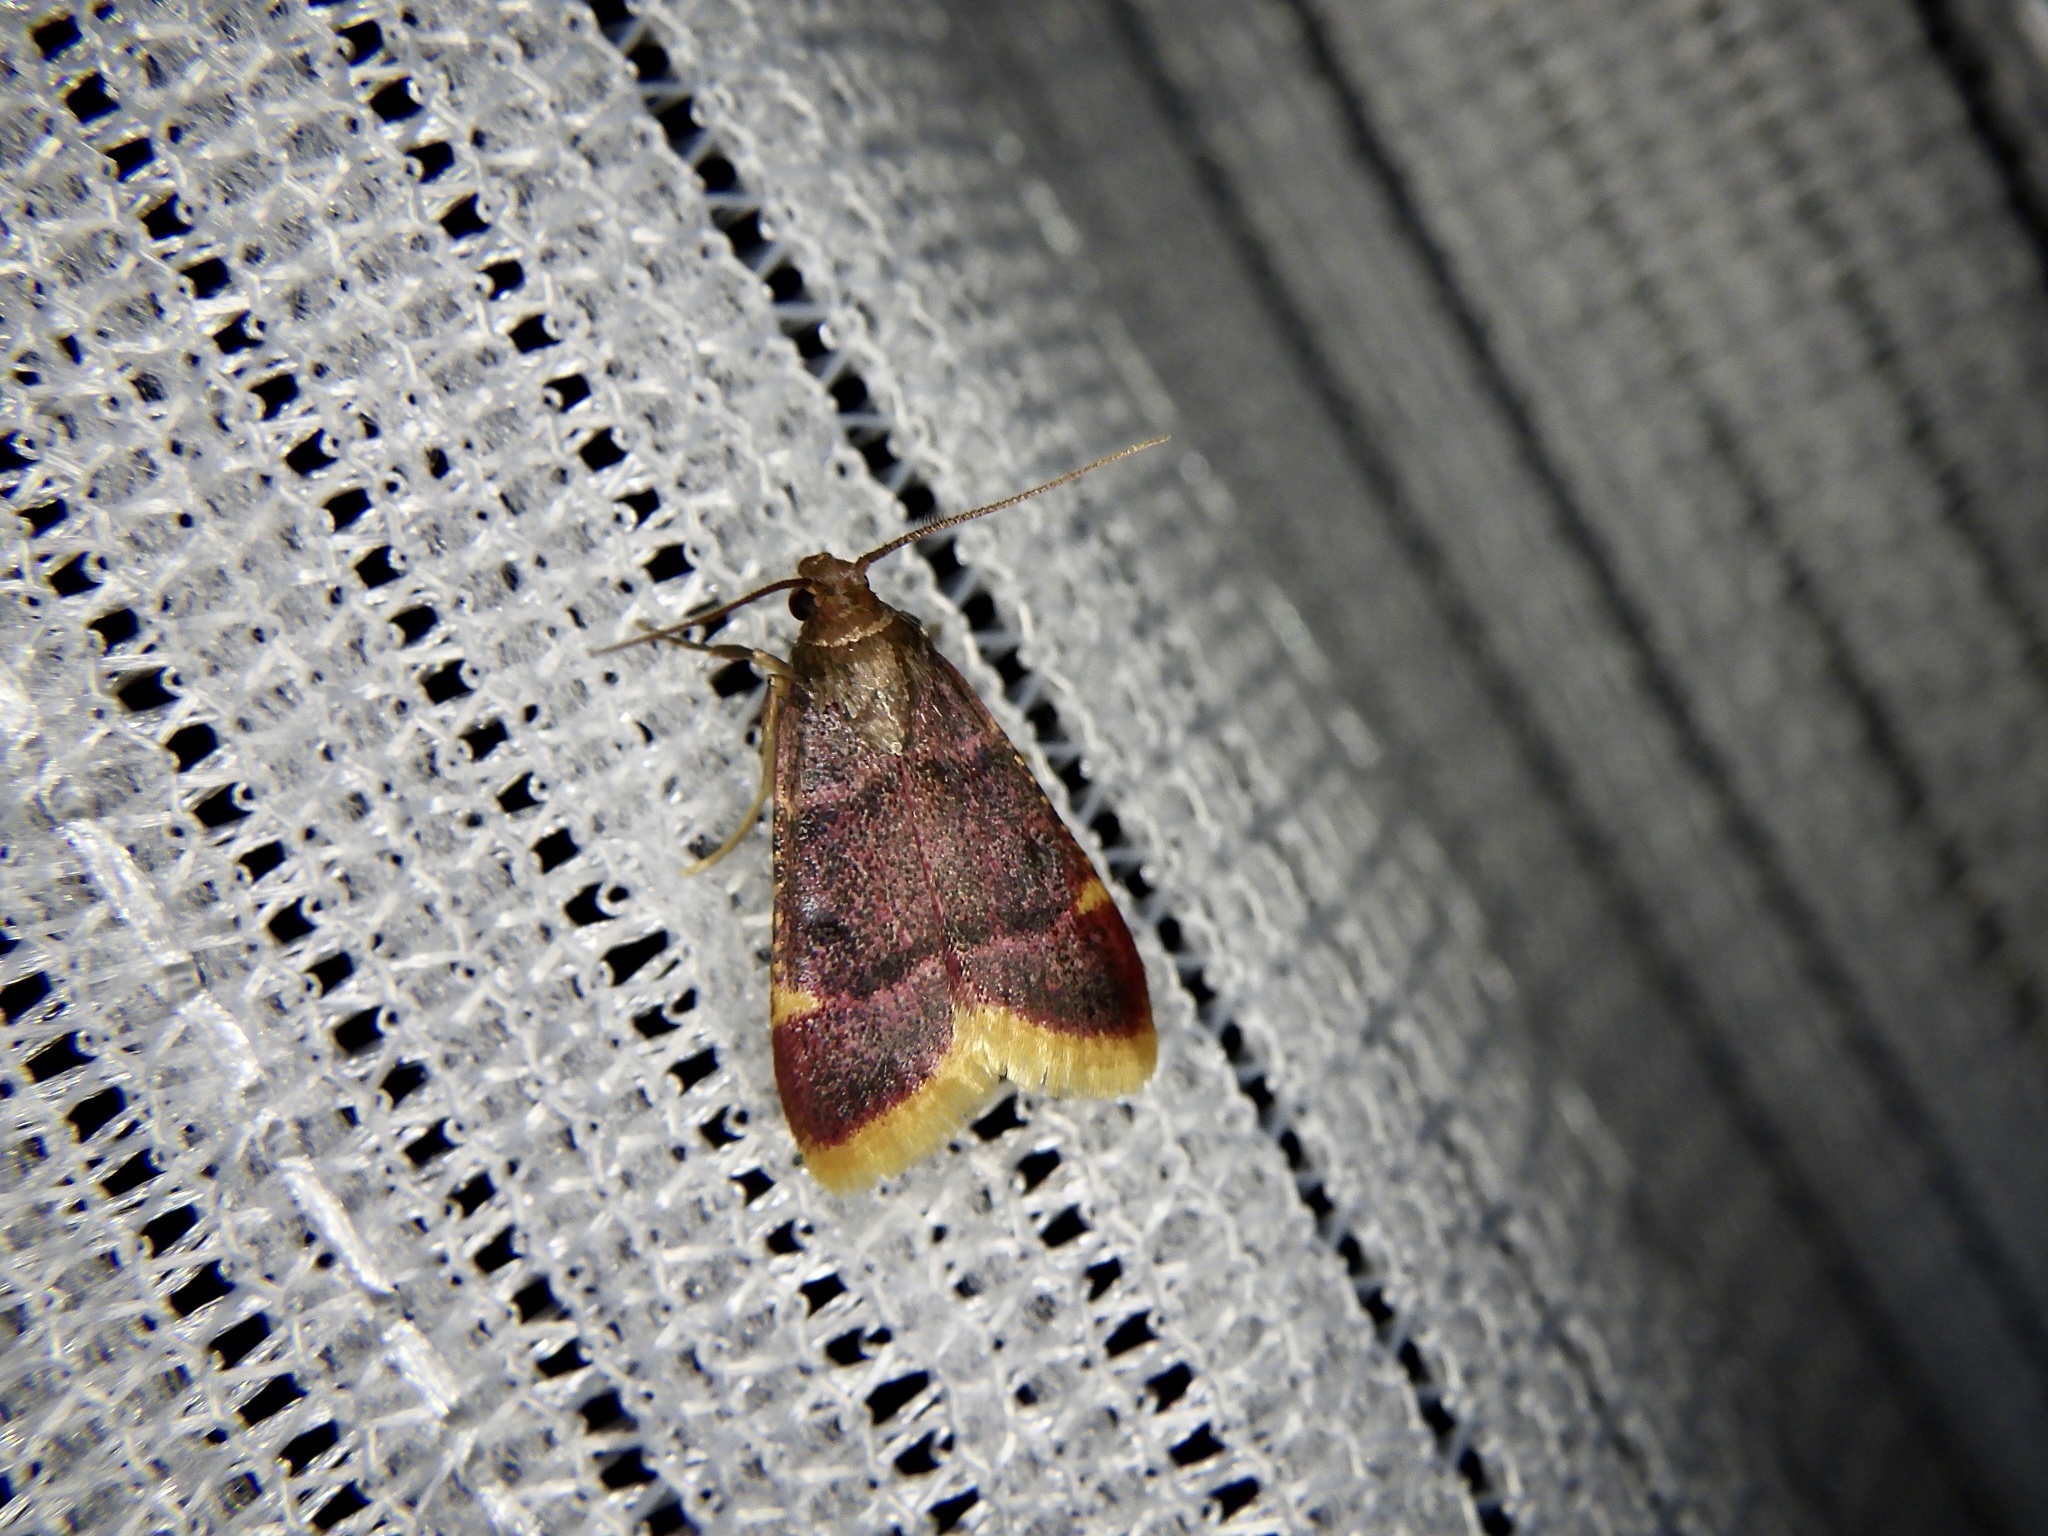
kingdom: Animalia
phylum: Arthropoda
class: Insecta
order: Lepidoptera
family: Pyralidae
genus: Hypsopygia
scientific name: Hypsopygia regina
